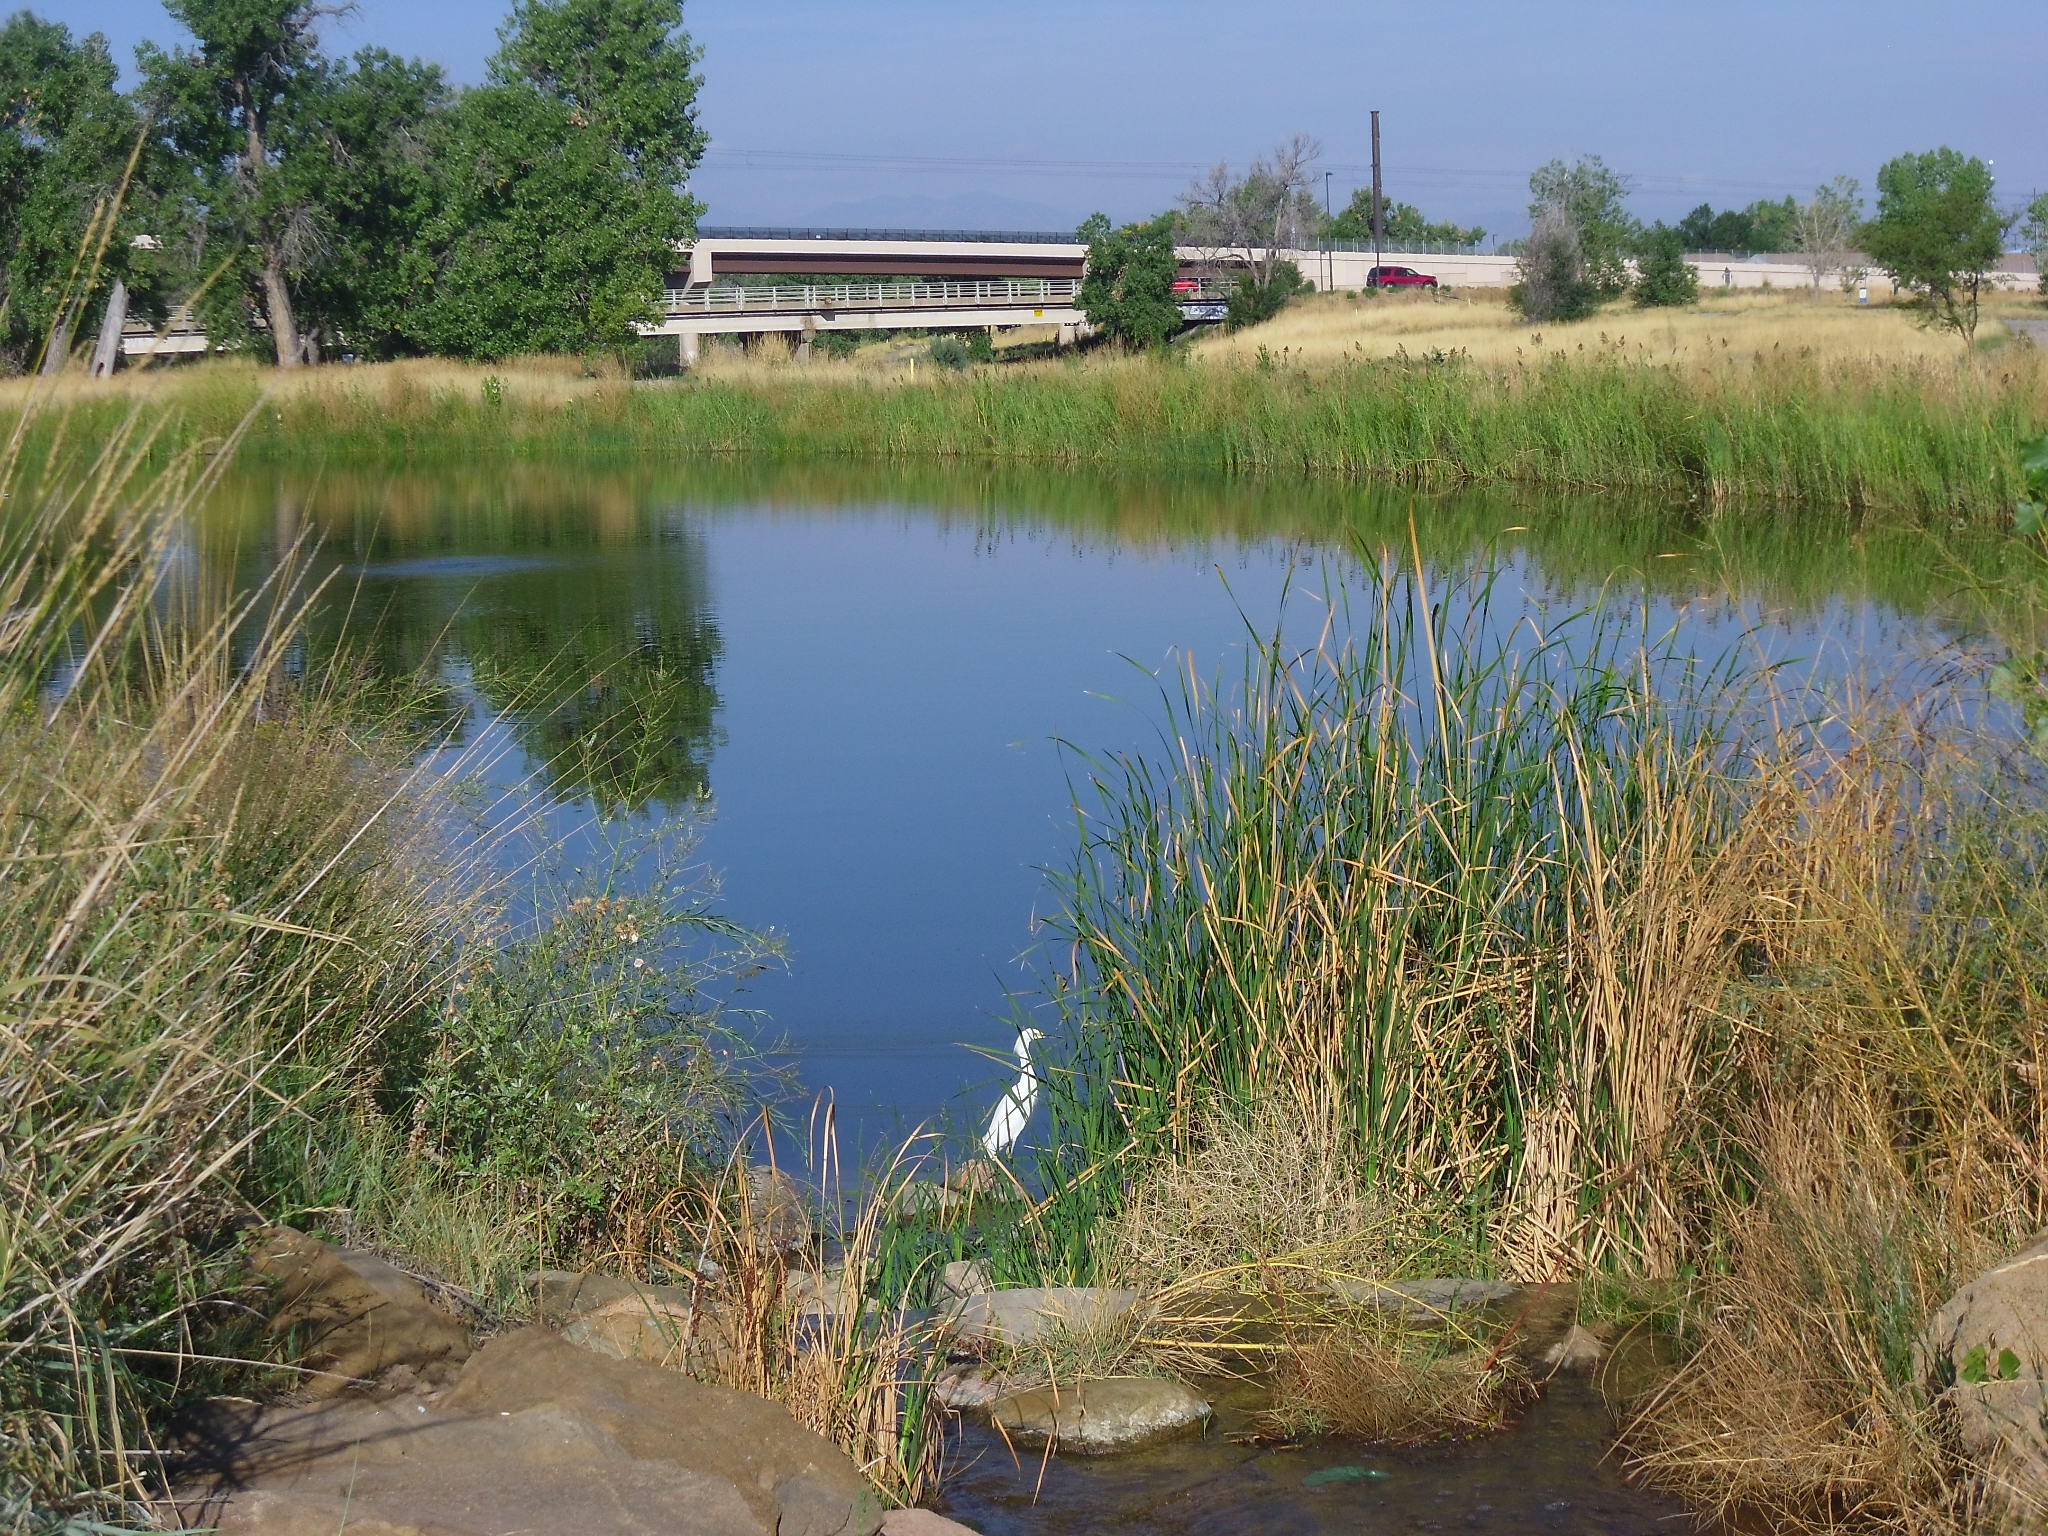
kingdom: Animalia
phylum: Chordata
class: Aves
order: Pelecaniformes
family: Ardeidae
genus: Egretta
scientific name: Egretta thula
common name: Snowy egret
